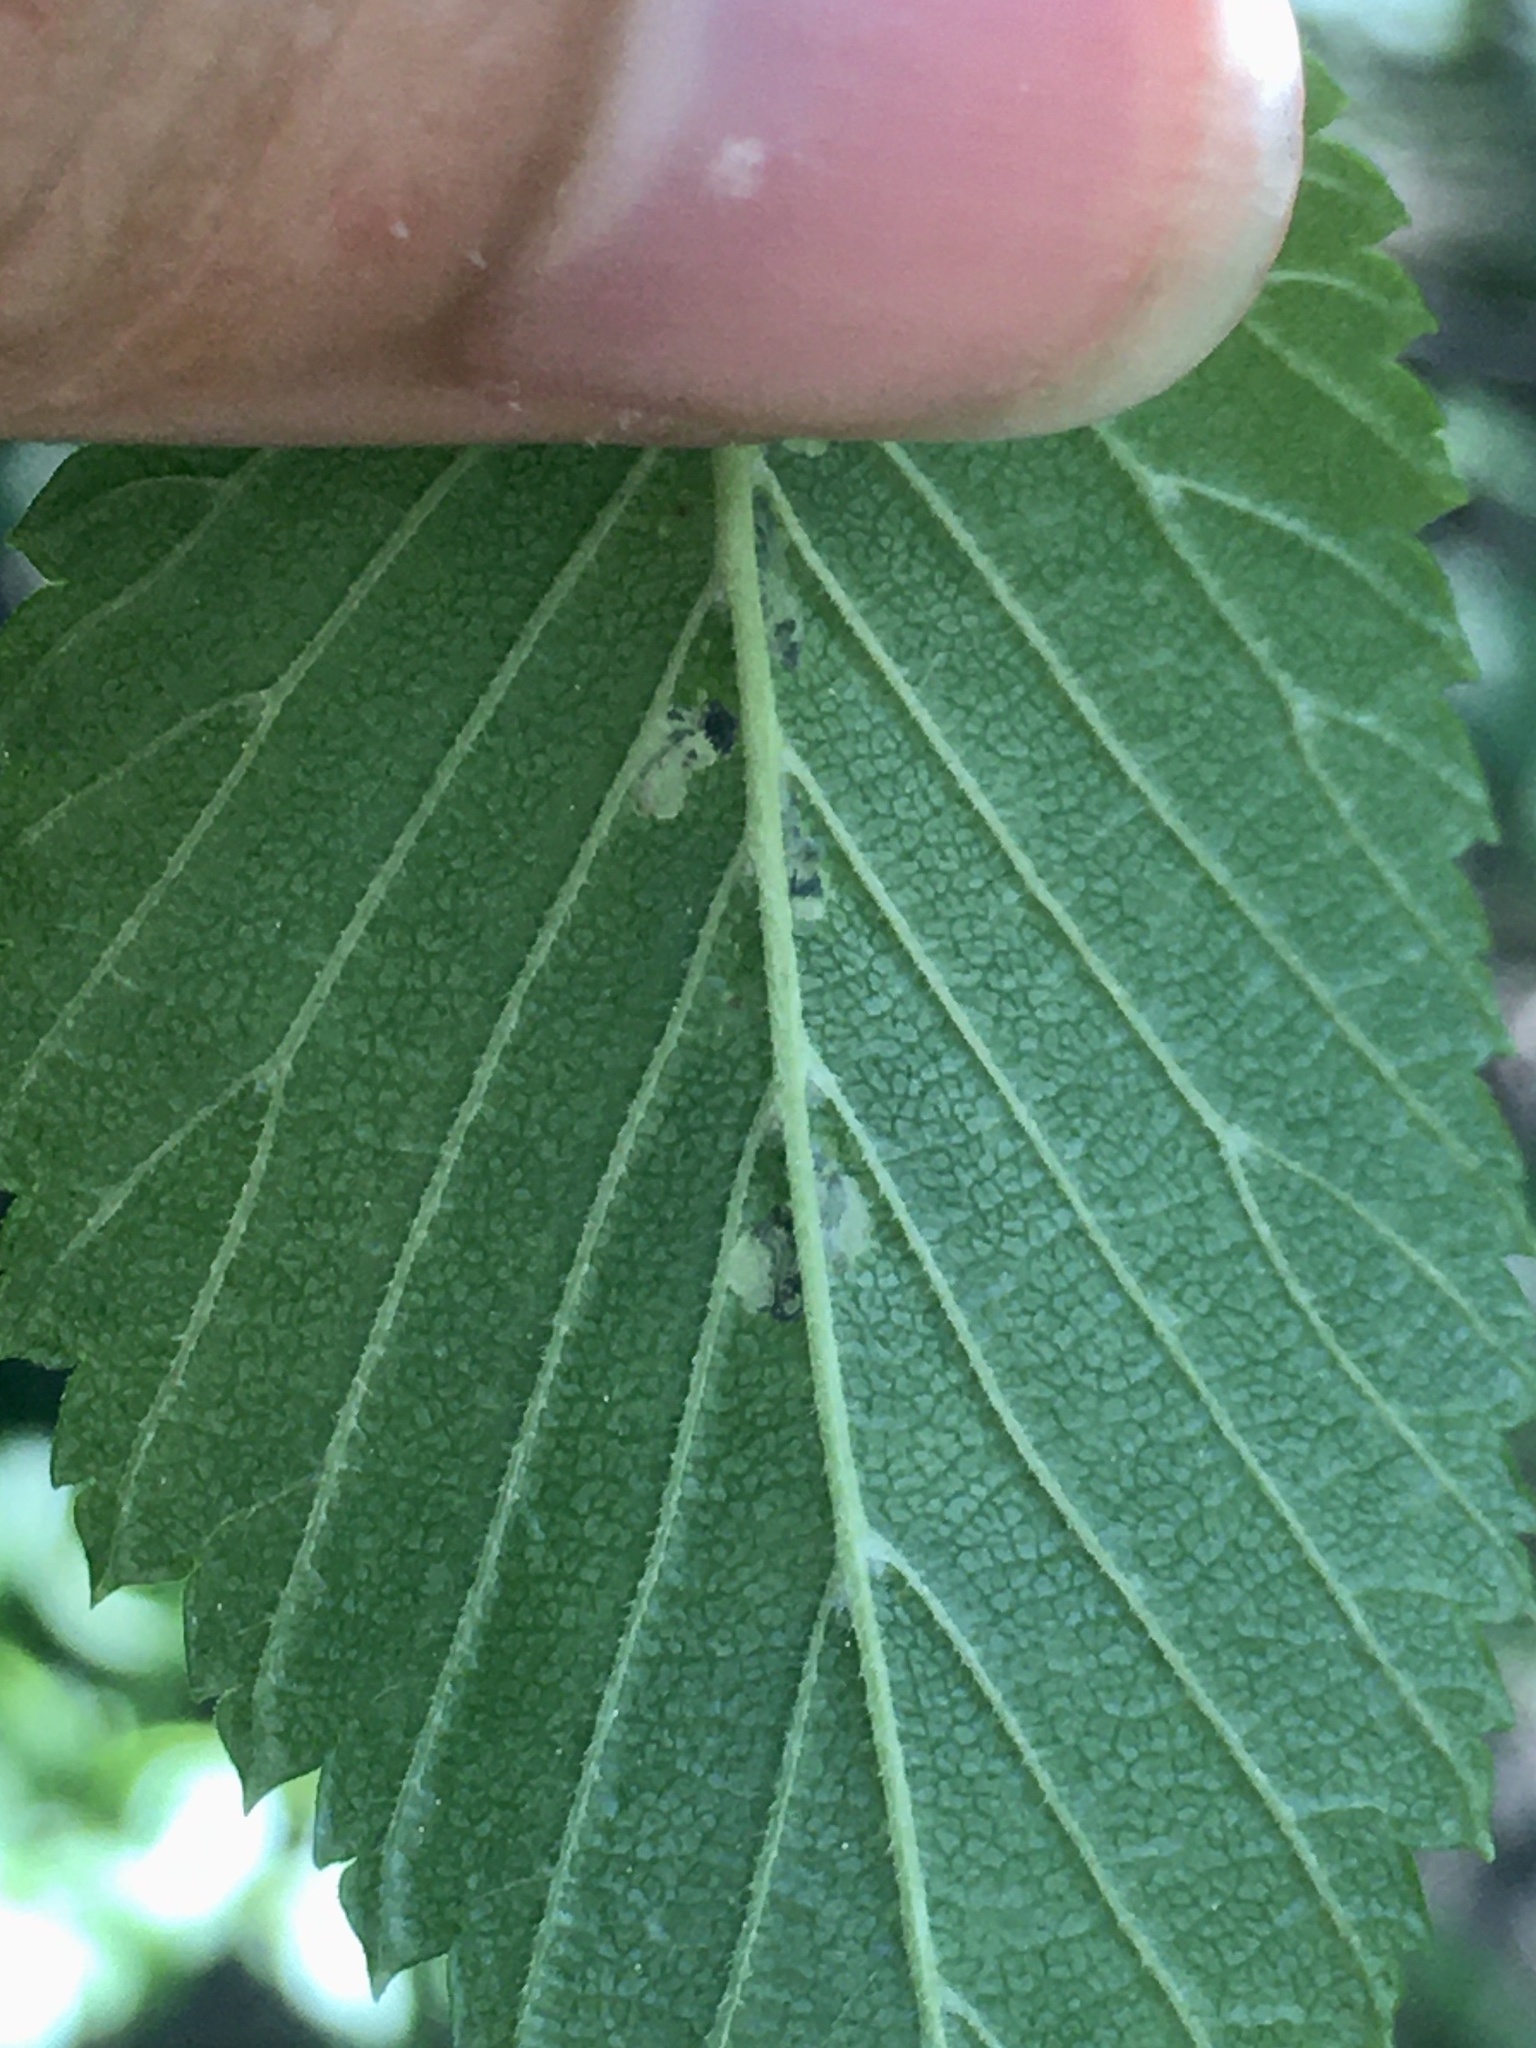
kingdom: Animalia
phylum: Arthropoda
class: Insecta
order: Hymenoptera
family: Tenthredinidae
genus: Fenusa
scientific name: Fenusa ulmi
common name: Elm leafminer
